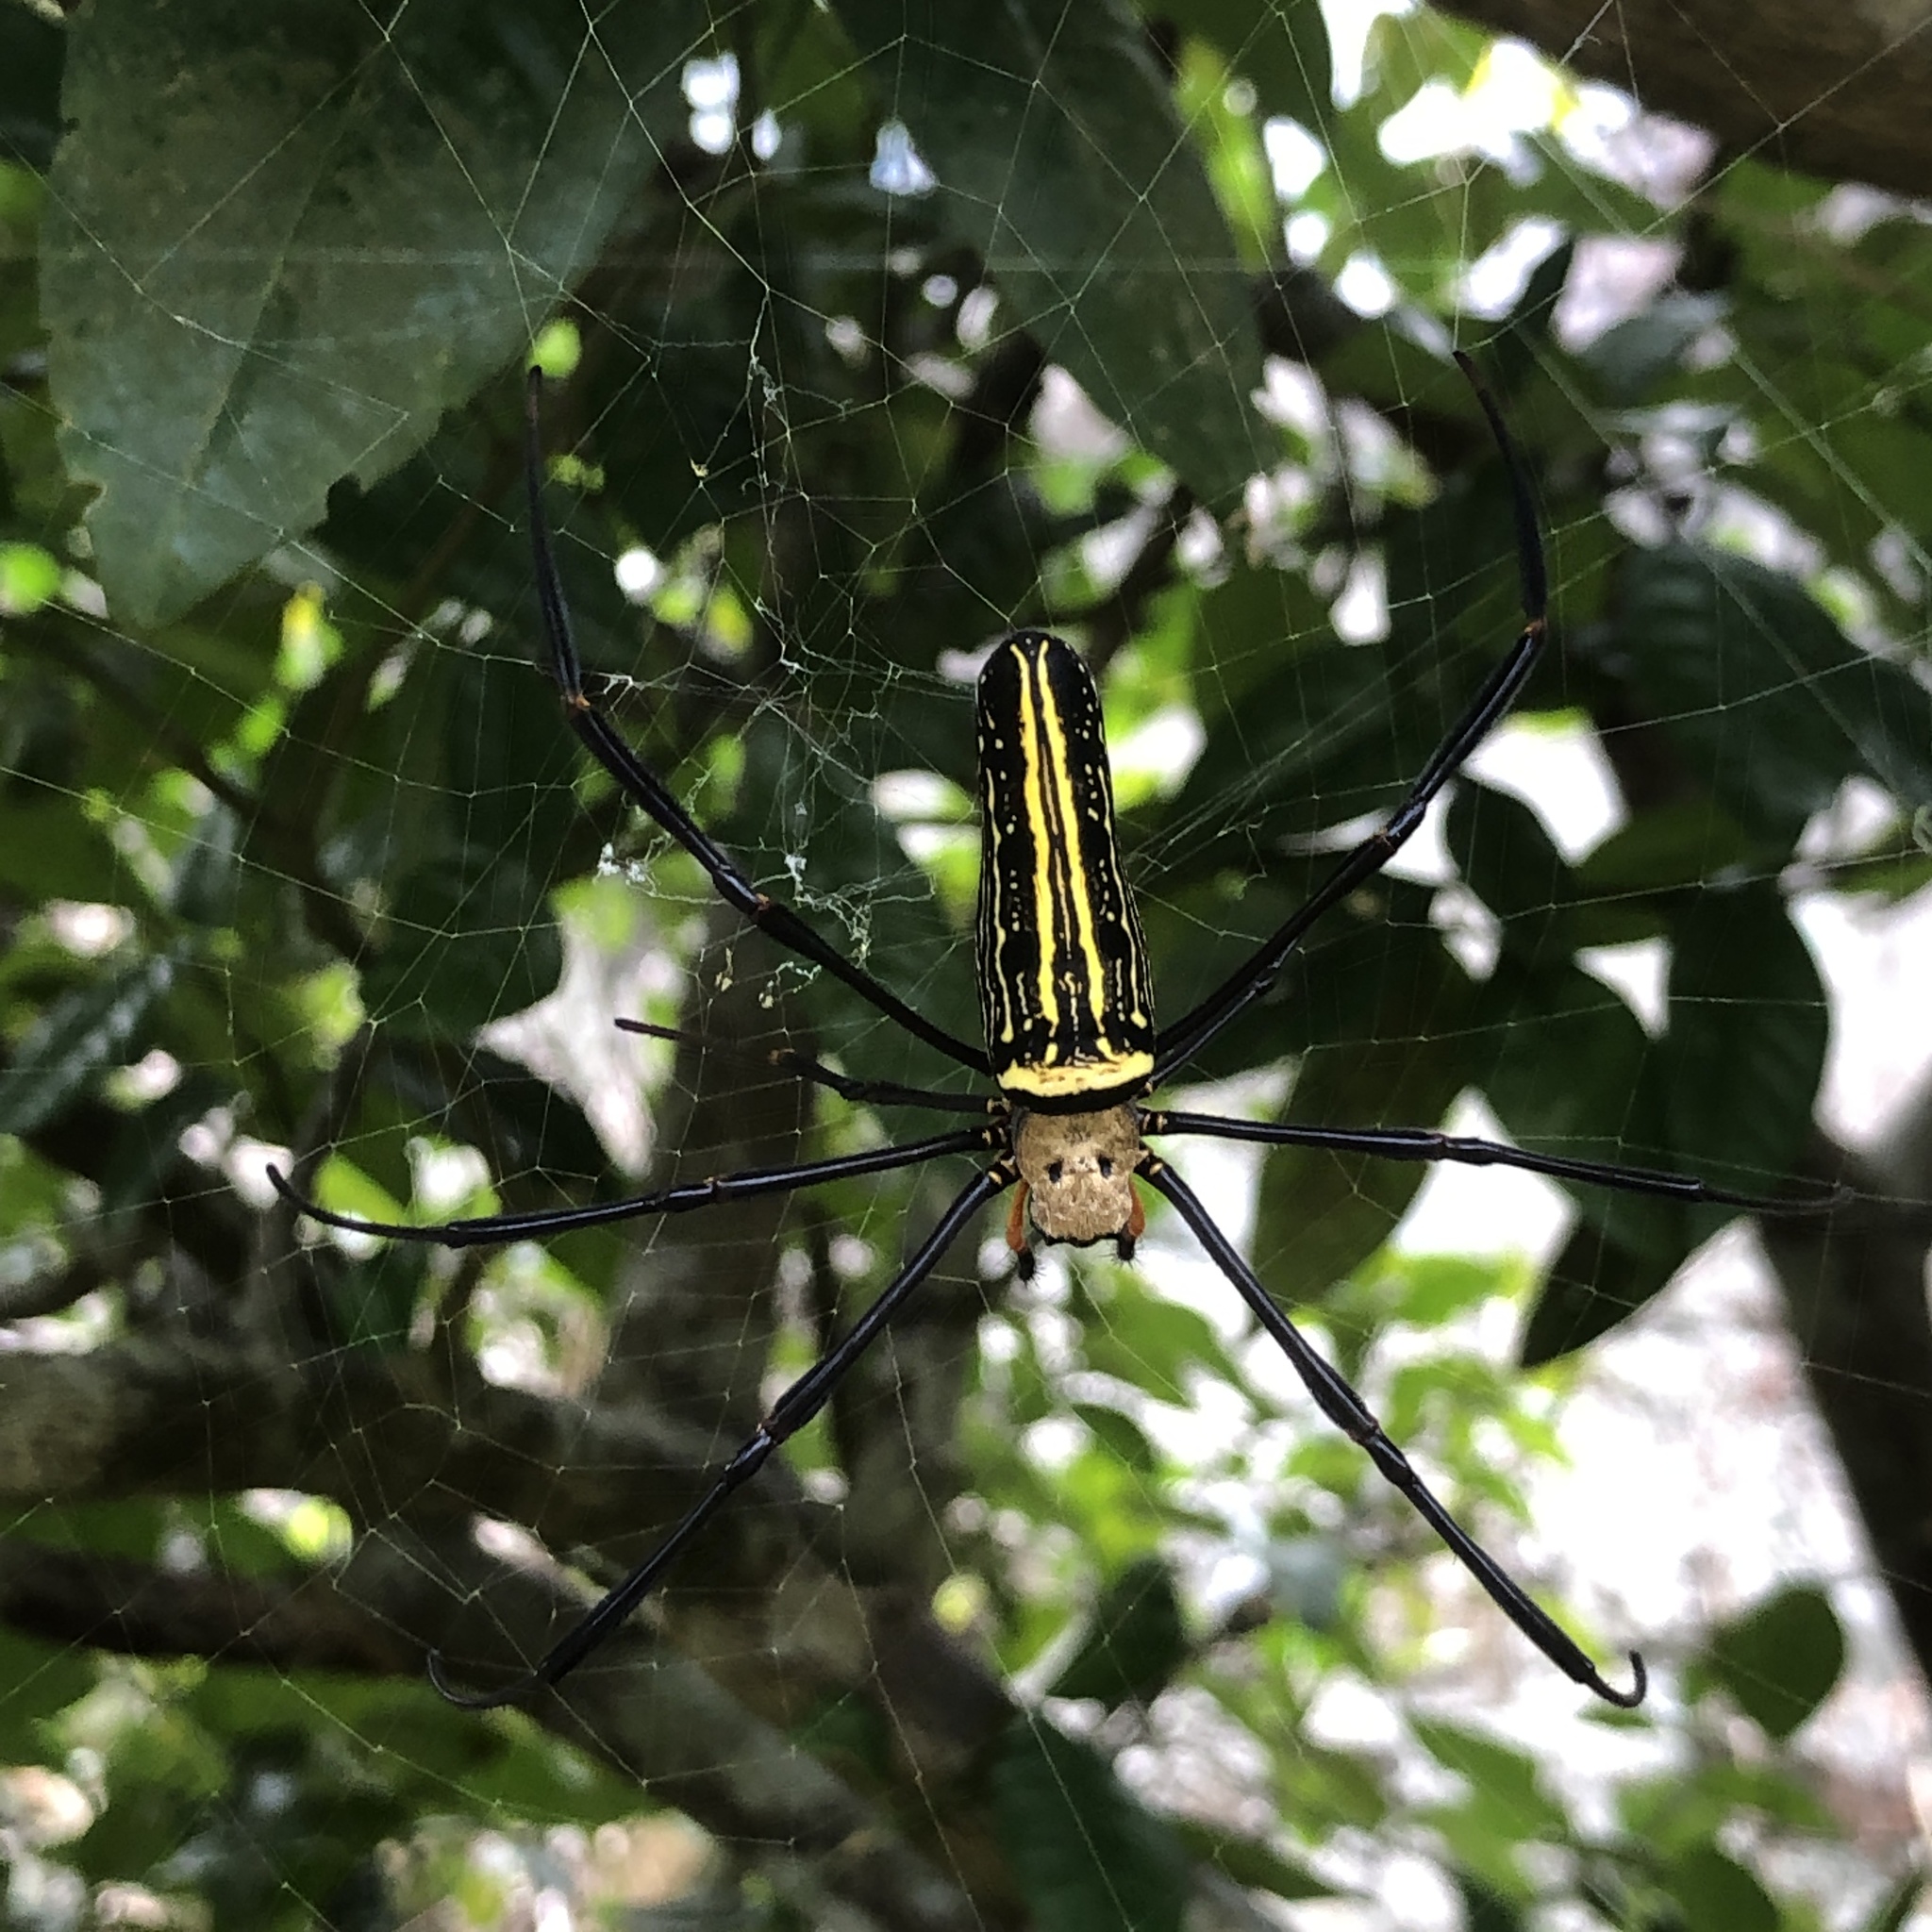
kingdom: Animalia
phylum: Arthropoda
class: Arachnida
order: Araneae
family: Araneidae
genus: Nephila
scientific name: Nephila pilipes
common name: Giant golden orb weaver
